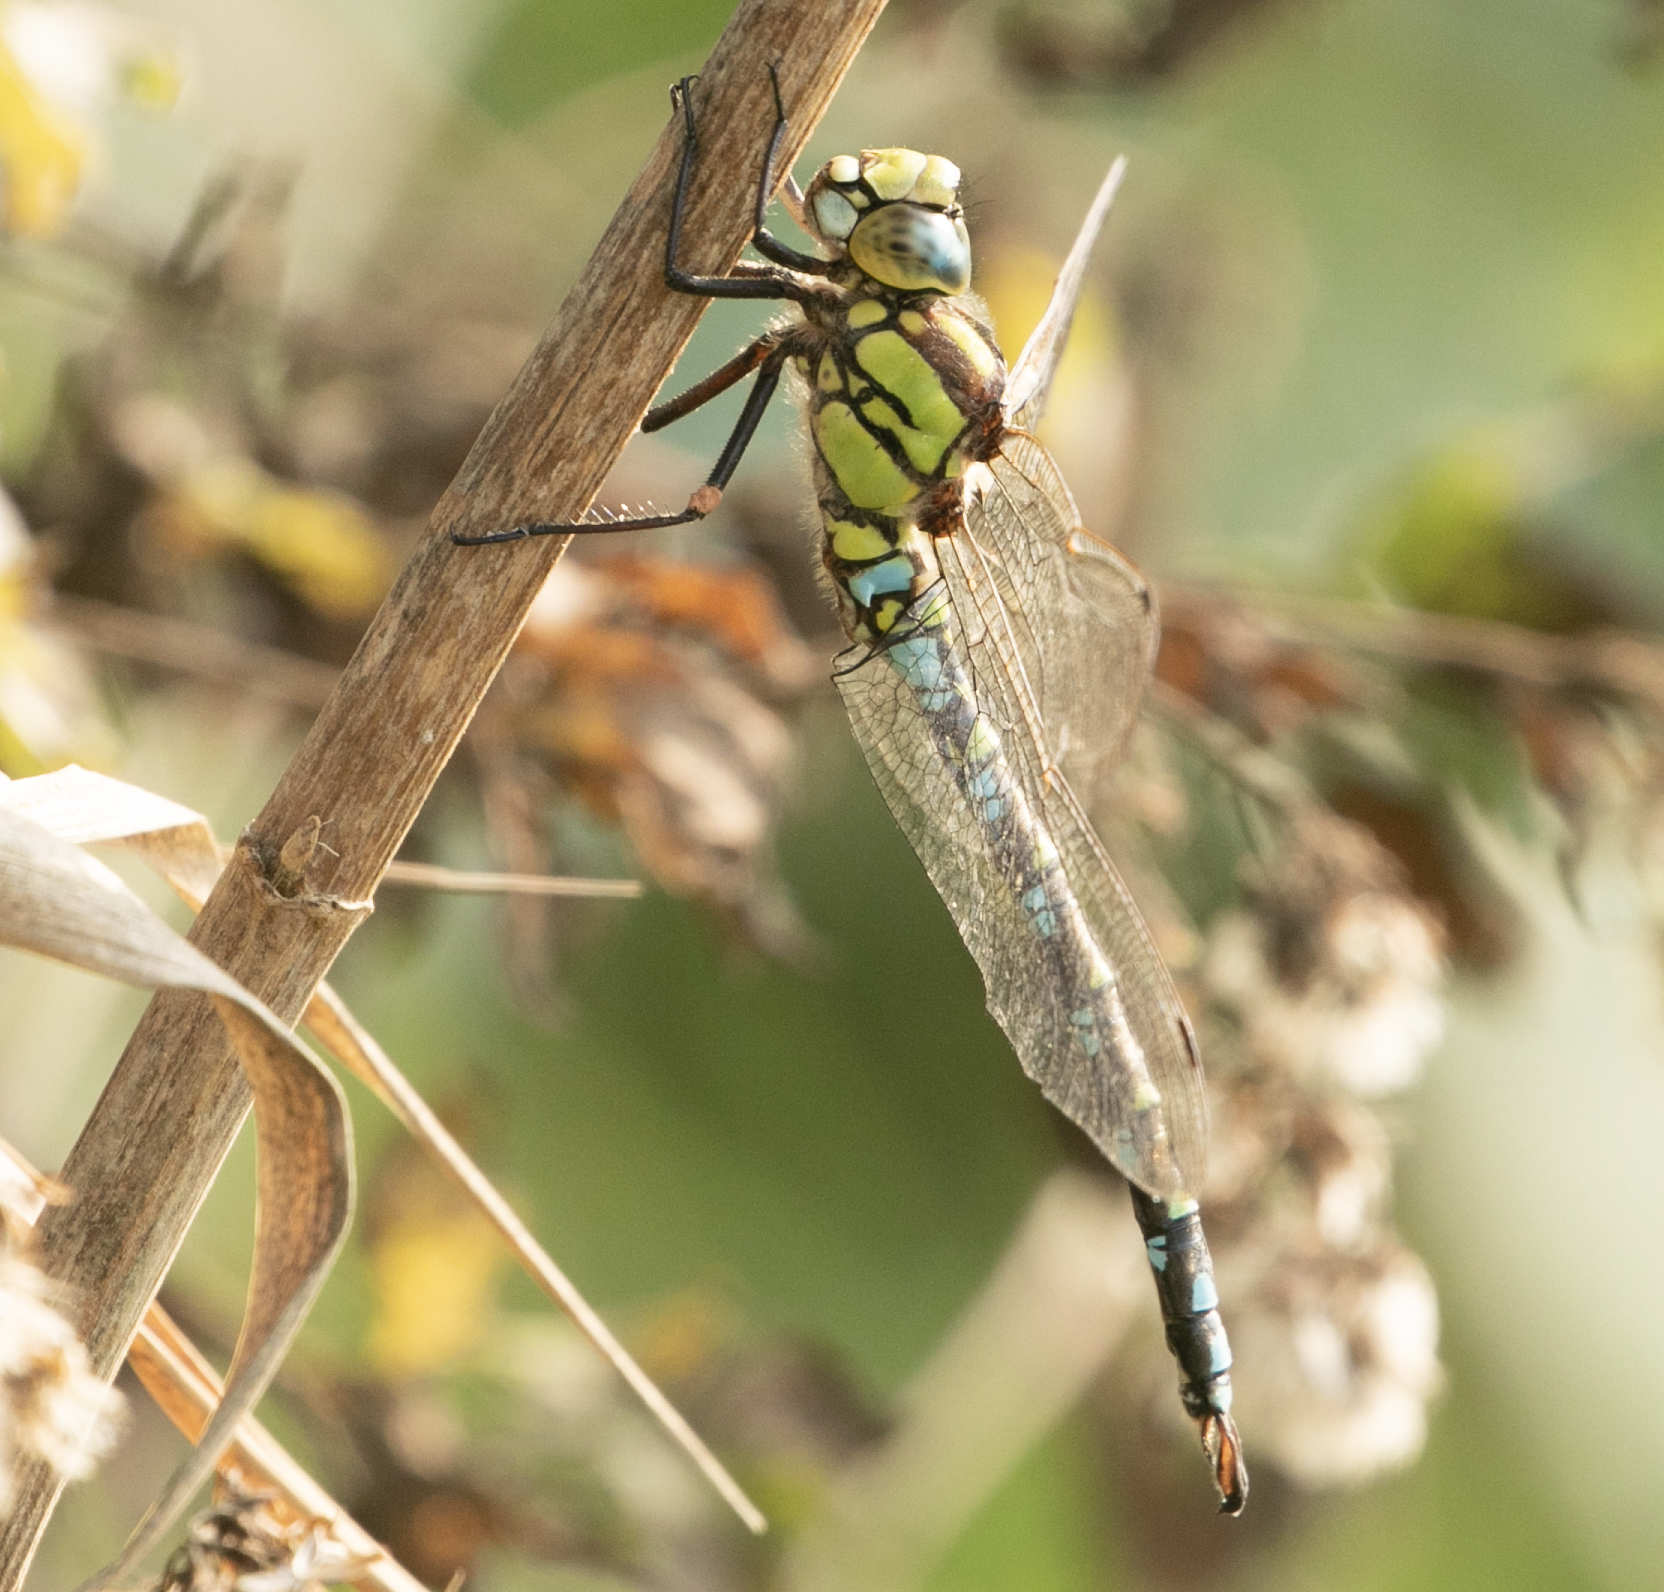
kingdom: Animalia
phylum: Arthropoda
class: Insecta
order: Odonata
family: Aeshnidae
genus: Aeshna
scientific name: Aeshna cyanea
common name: Southern hawker
